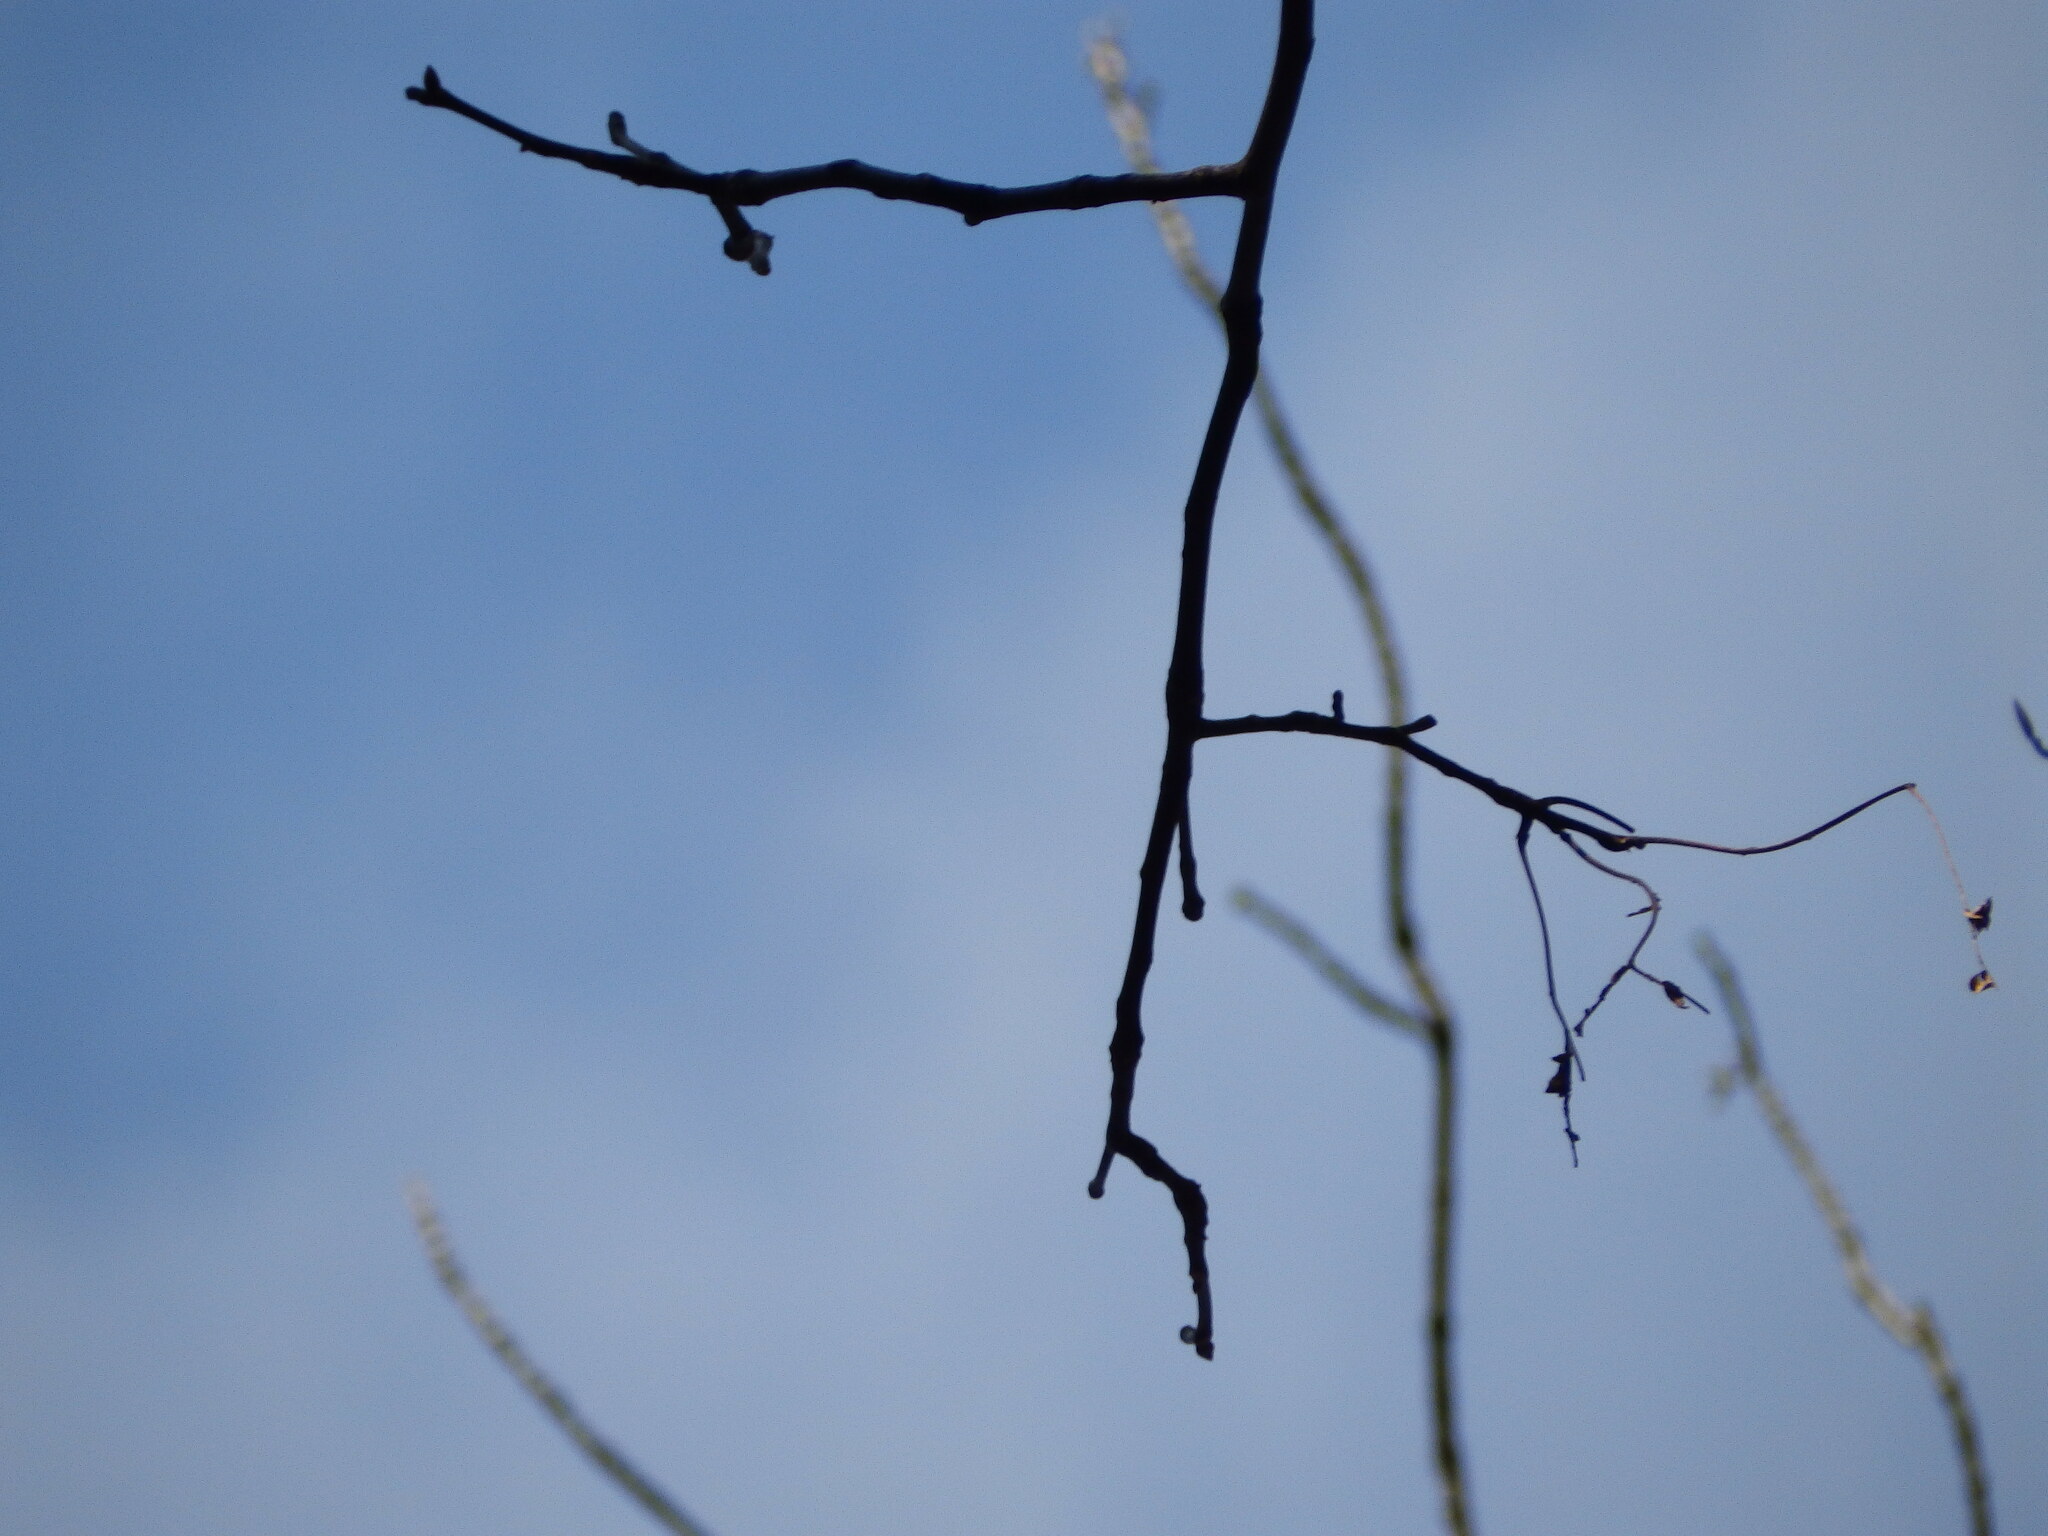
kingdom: Plantae
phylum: Tracheophyta
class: Magnoliopsida
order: Fagales
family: Juglandaceae
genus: Carya
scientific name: Carya alba
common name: Mockernut hickory
